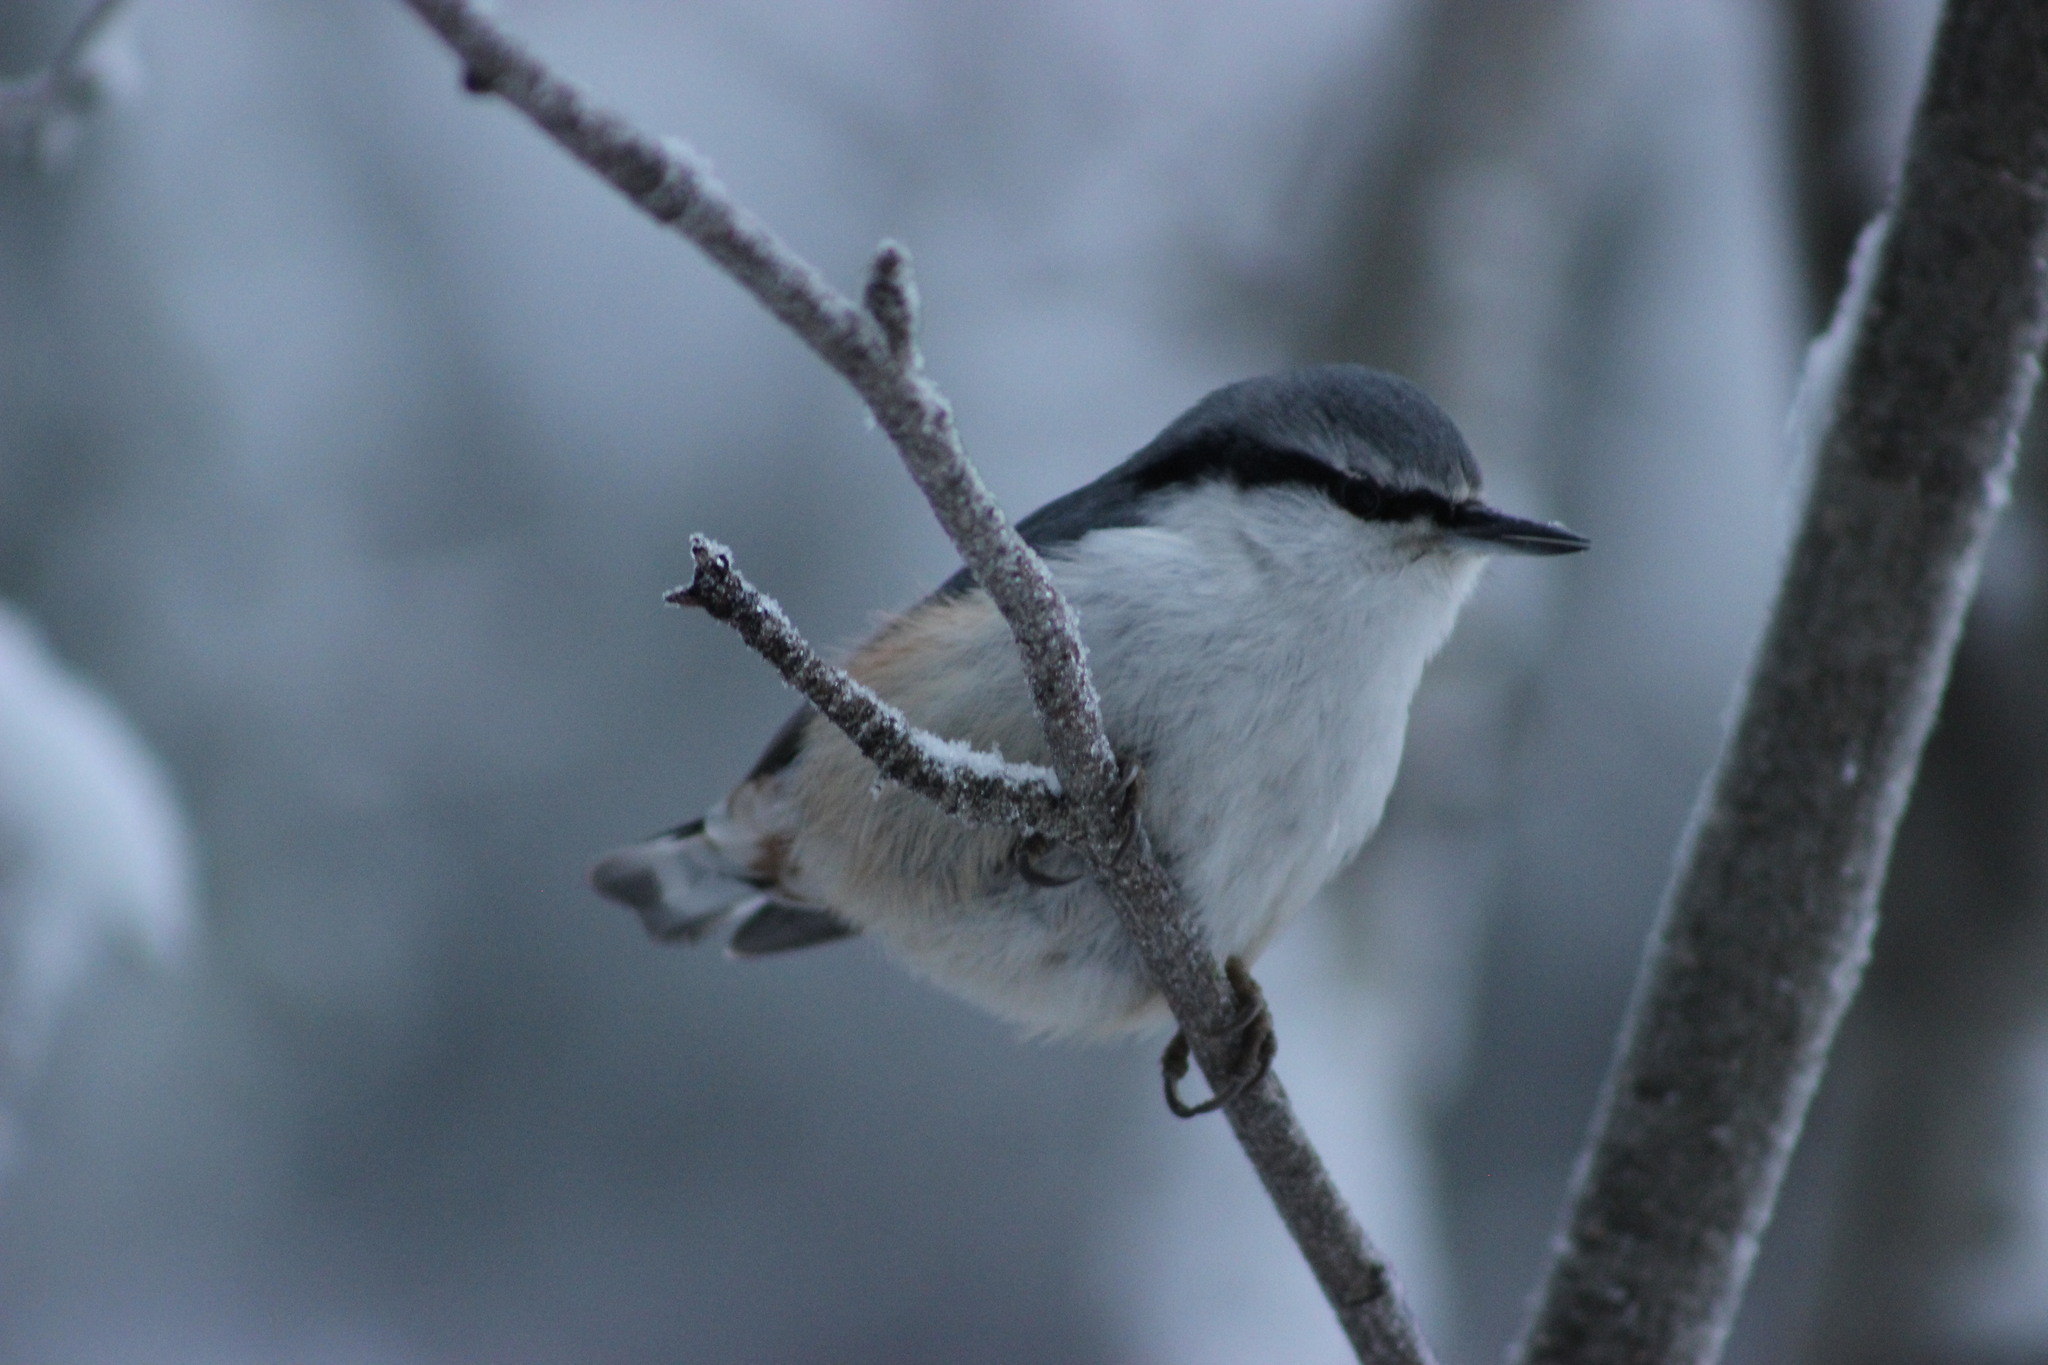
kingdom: Animalia
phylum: Chordata
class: Aves
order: Passeriformes
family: Sittidae
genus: Sitta
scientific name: Sitta europaea
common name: Eurasian nuthatch
